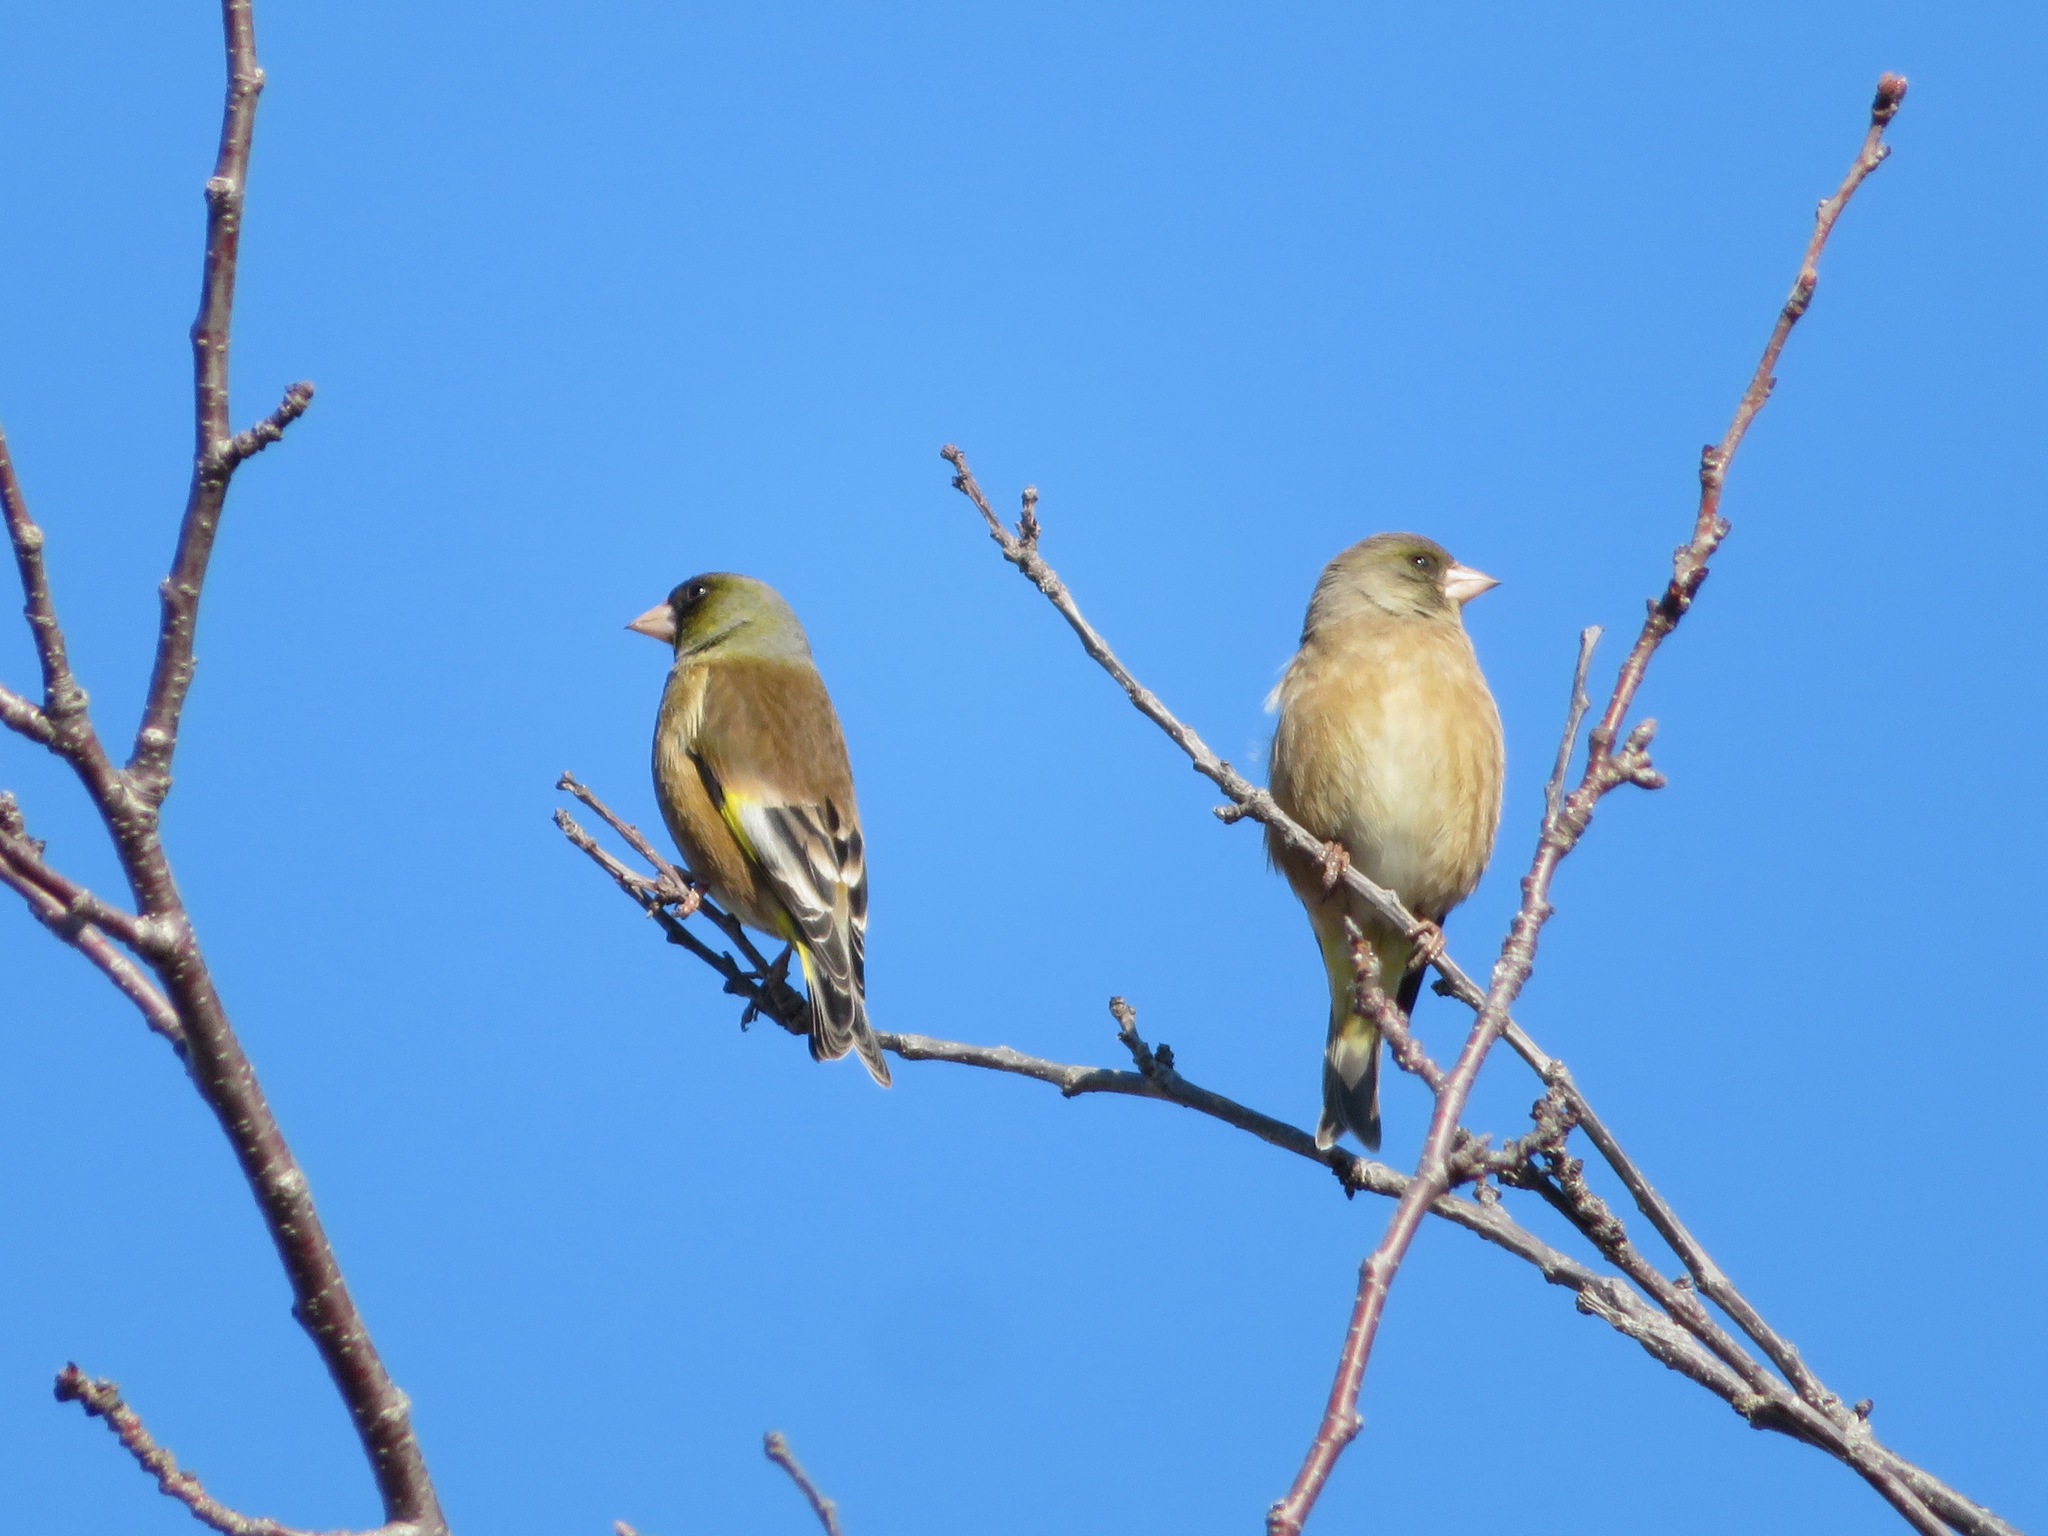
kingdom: Plantae
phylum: Tracheophyta
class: Liliopsida
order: Poales
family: Poaceae
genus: Chloris
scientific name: Chloris sinica
